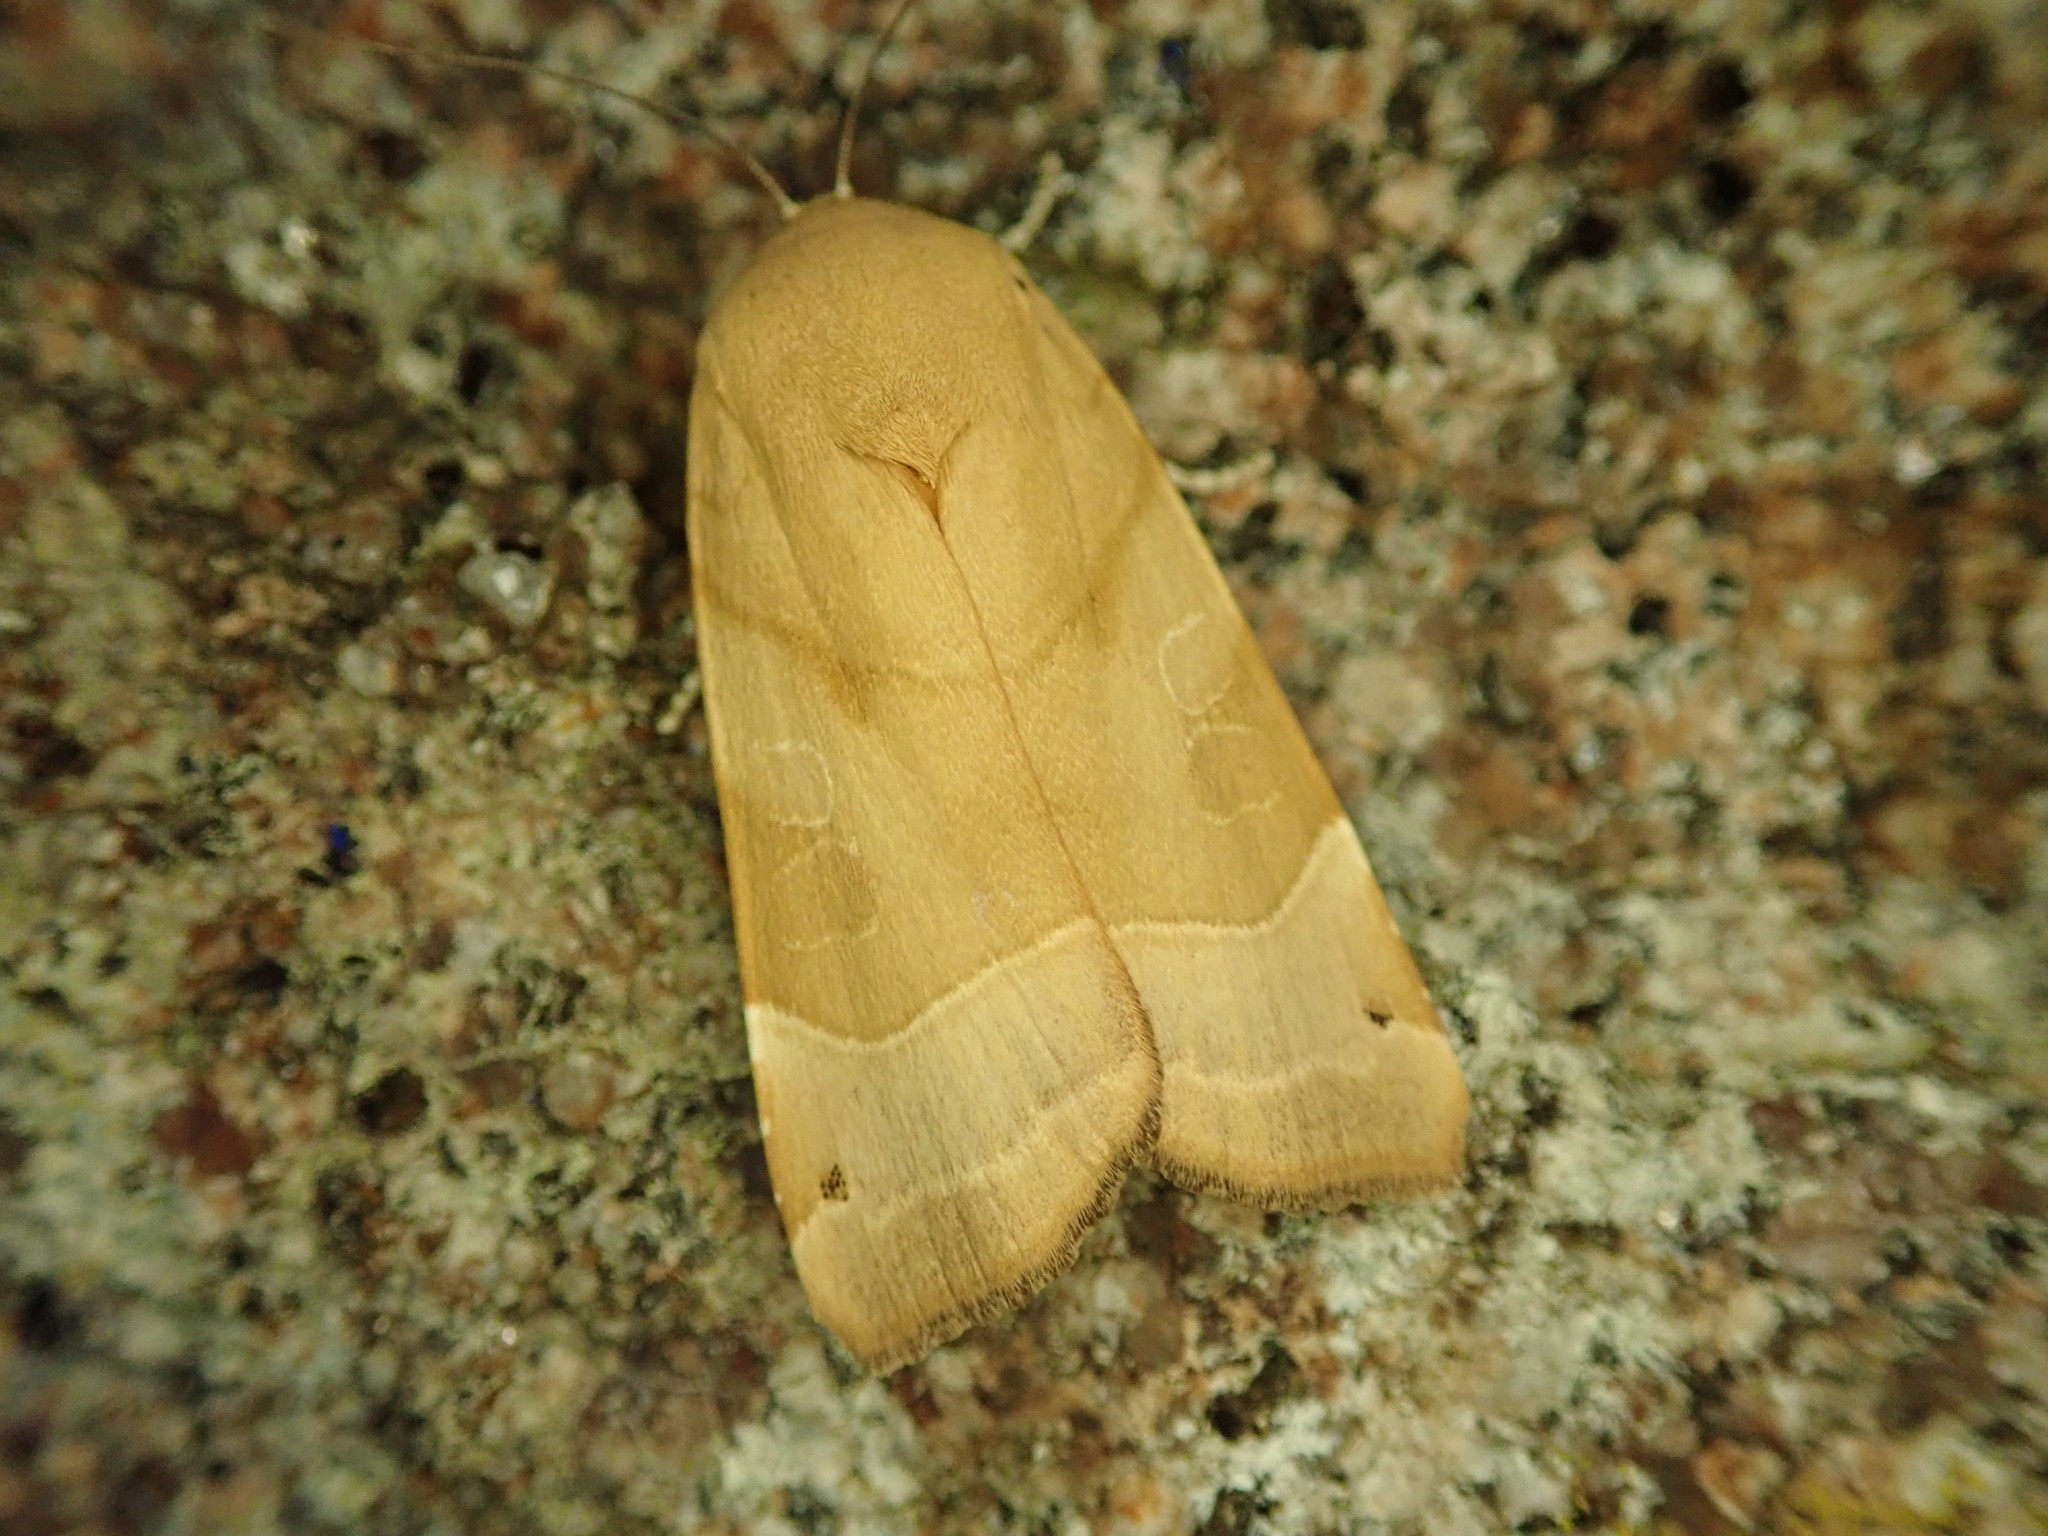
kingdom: Animalia
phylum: Arthropoda
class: Insecta
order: Lepidoptera
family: Noctuidae
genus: Noctua
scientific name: Noctua fimbriata
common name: Broad-bordered yellow underwing
